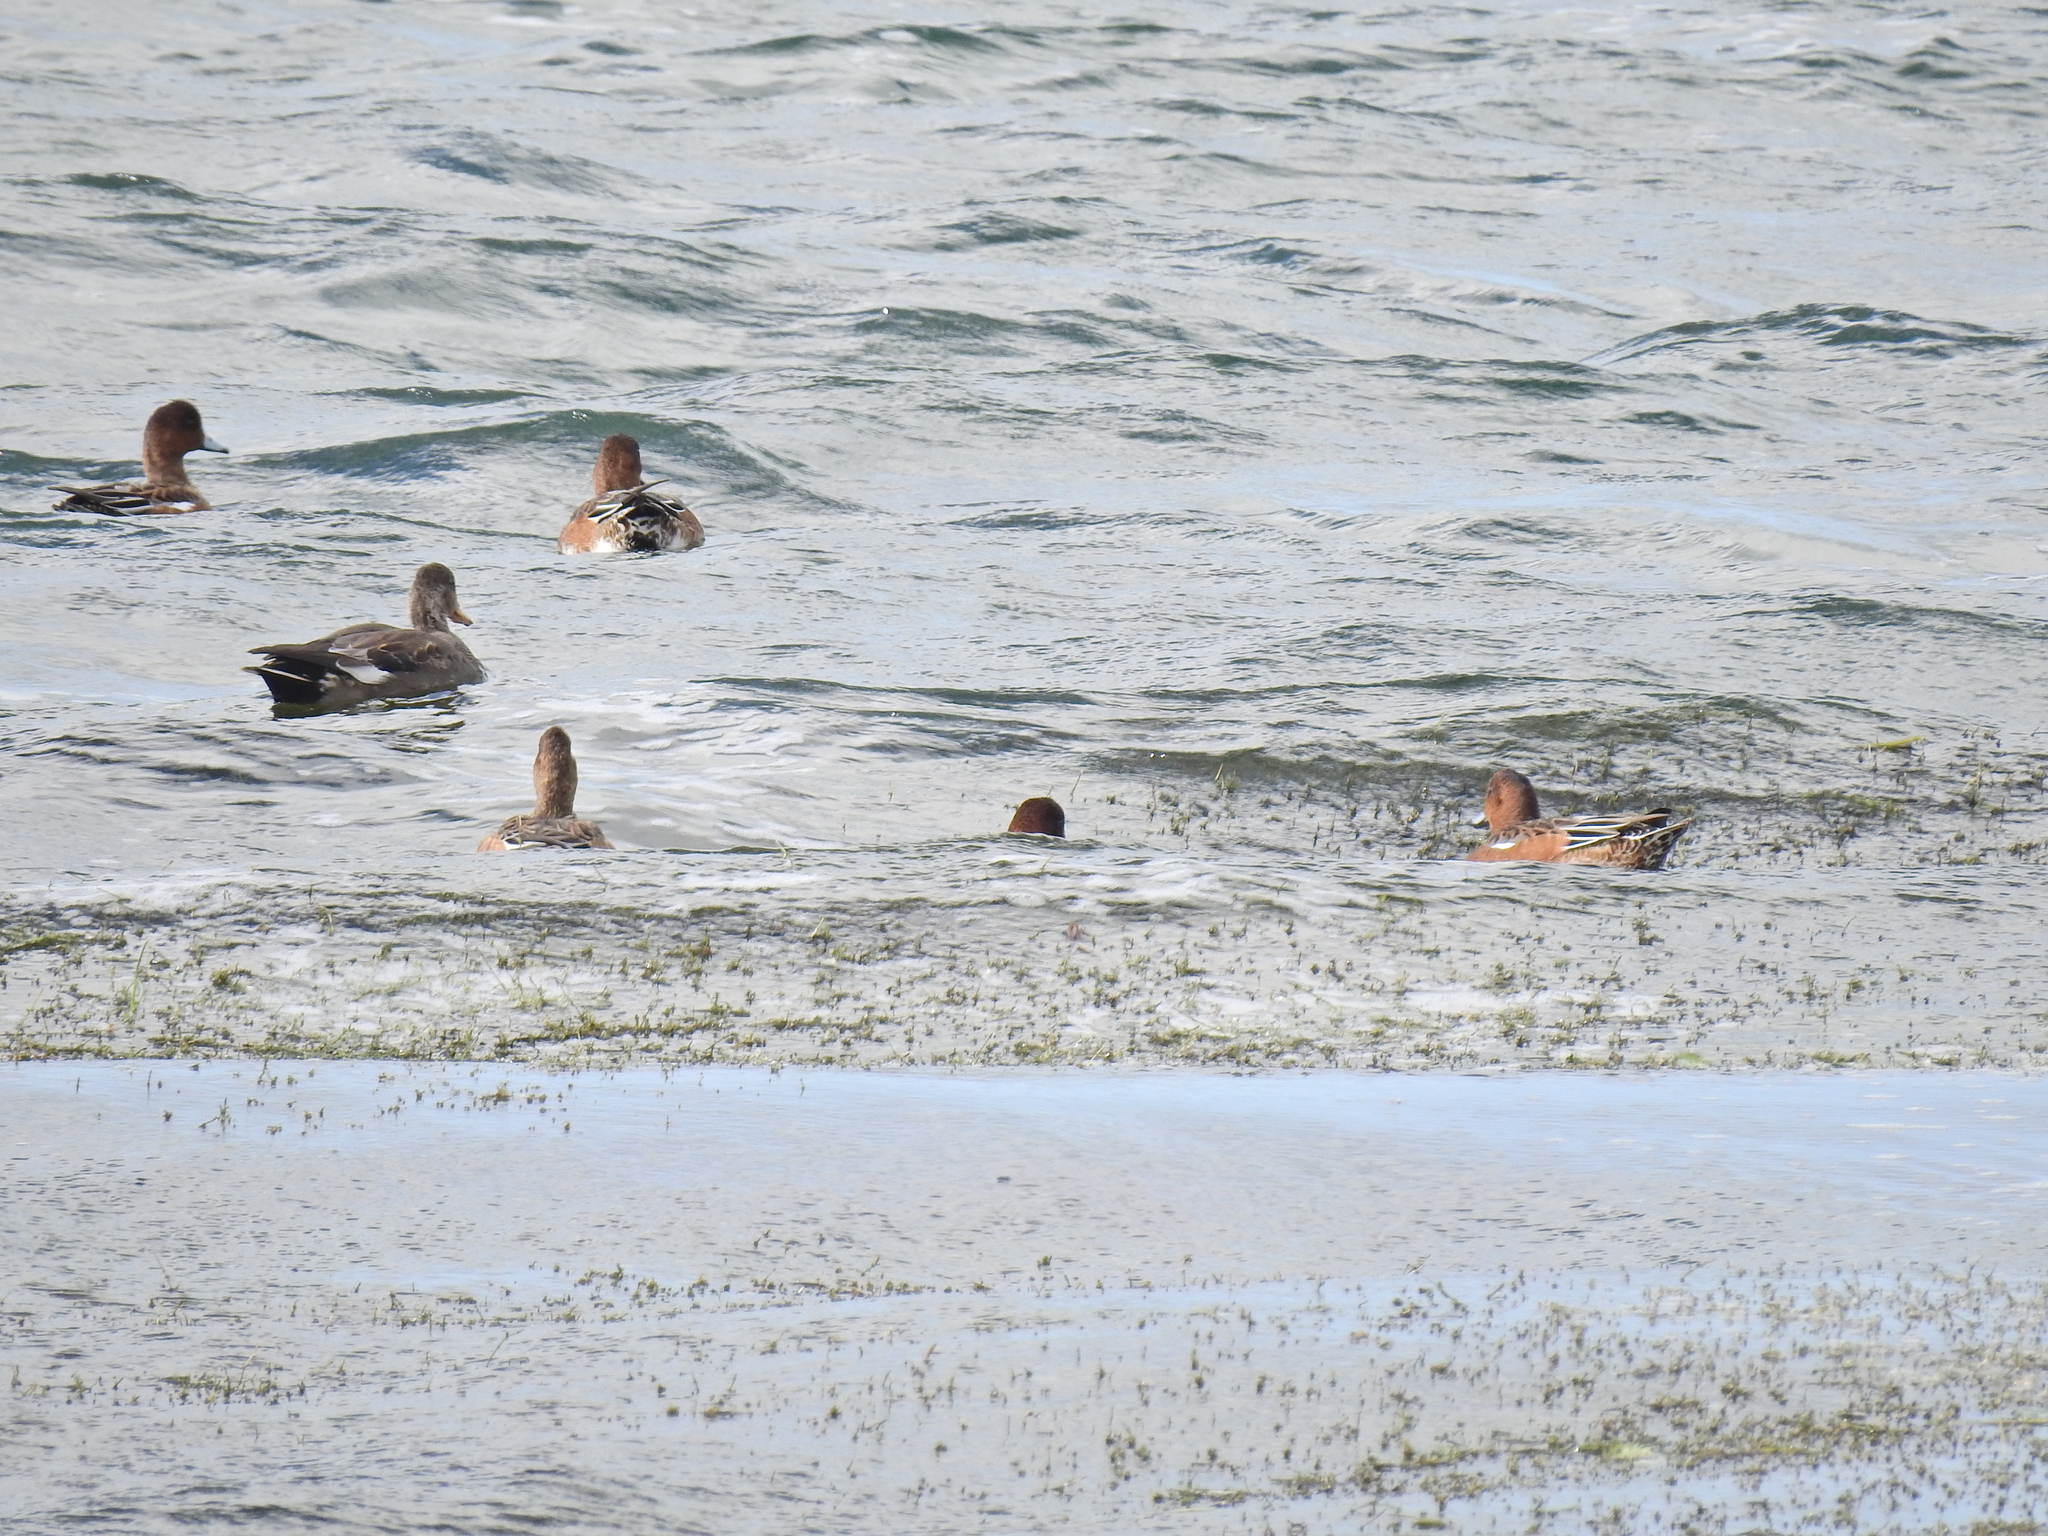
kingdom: Animalia
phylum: Chordata
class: Aves
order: Anseriformes
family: Anatidae
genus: Mareca
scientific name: Mareca penelope
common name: Eurasian wigeon
